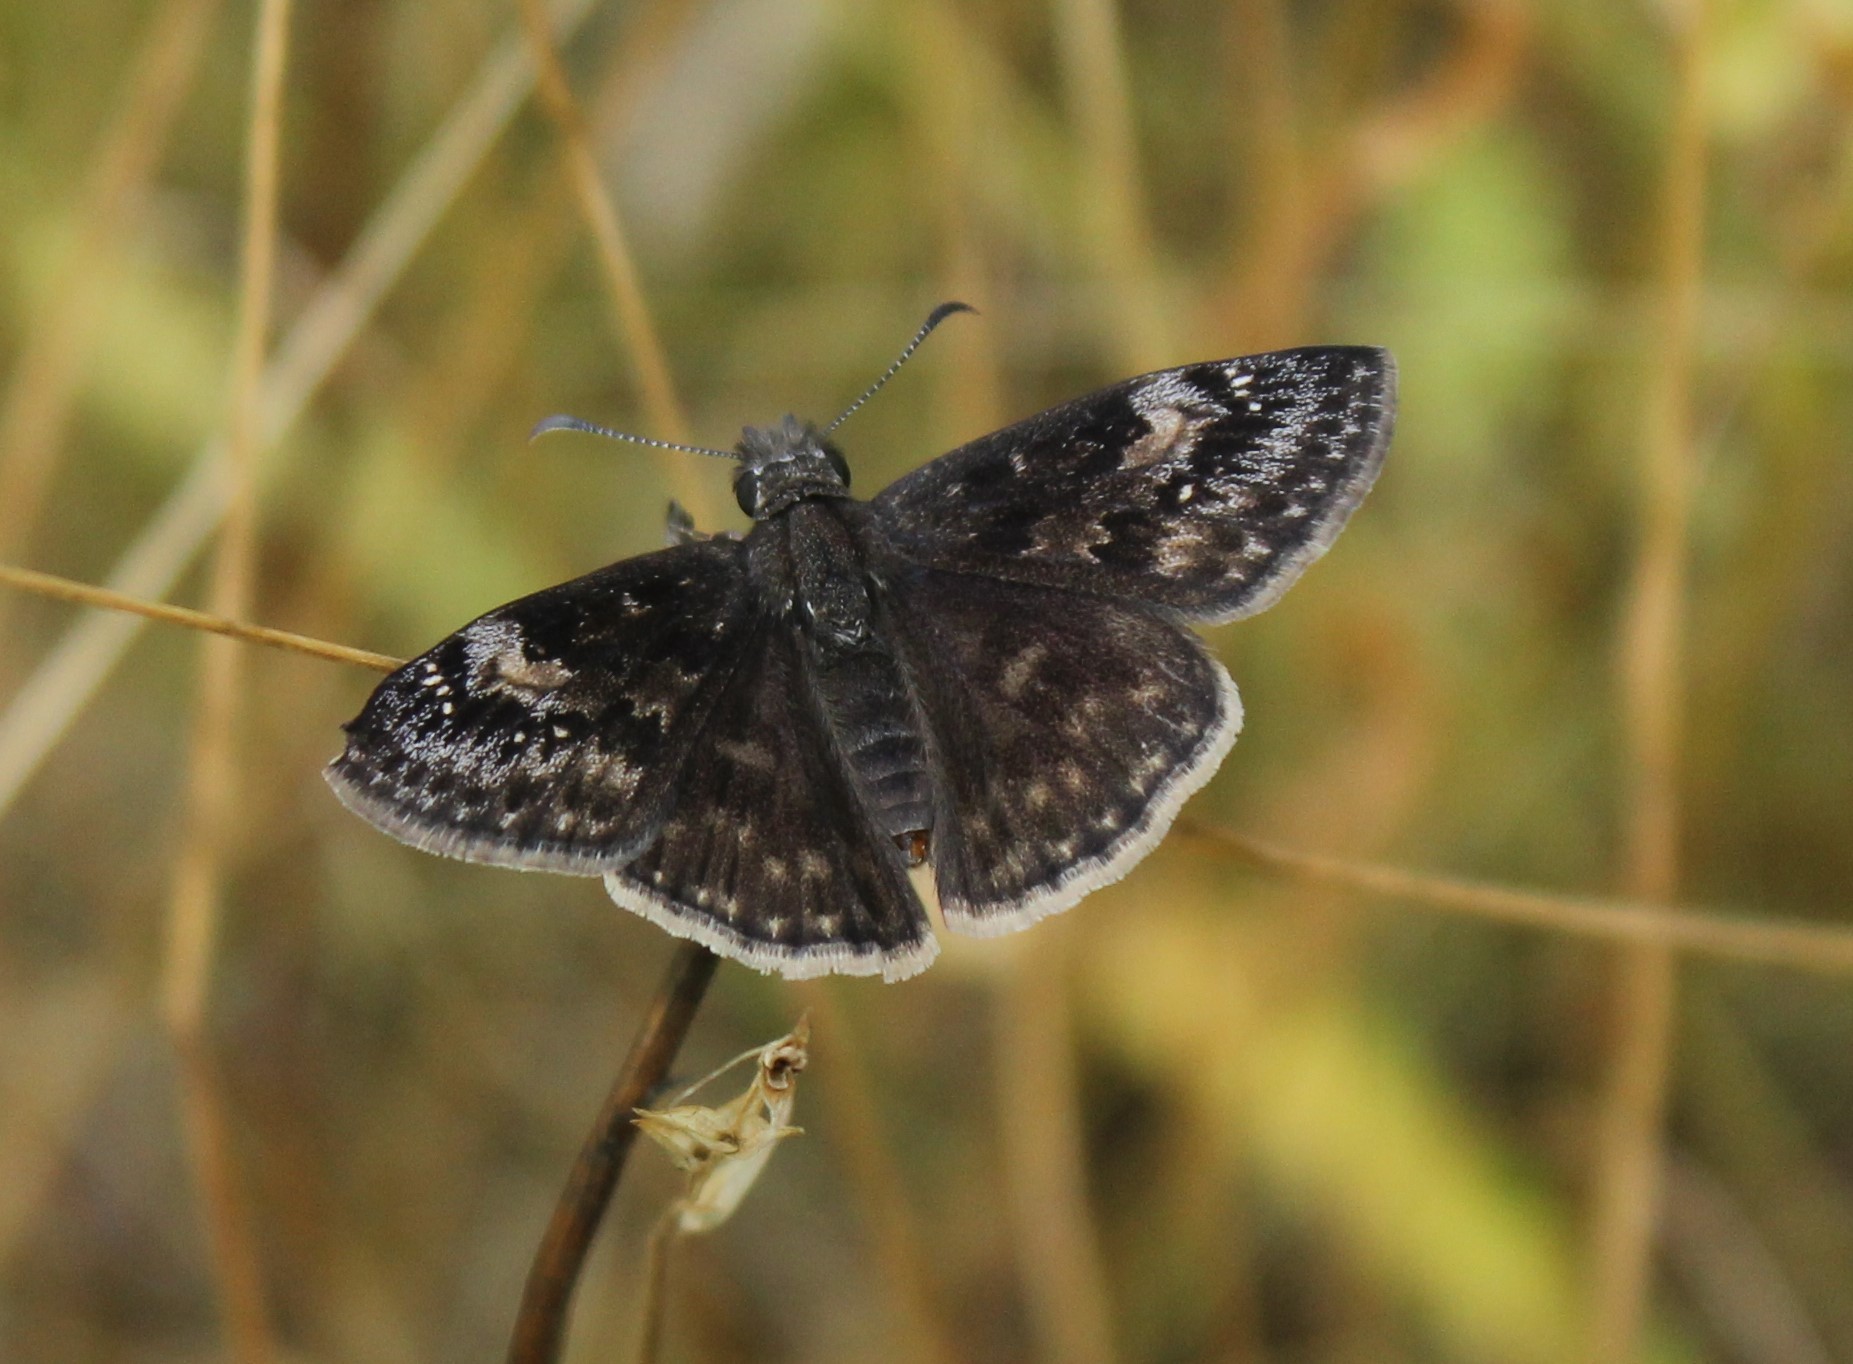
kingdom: Animalia
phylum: Arthropoda
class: Insecta
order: Lepidoptera
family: Hesperiidae
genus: Erynnis
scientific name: Erynnis baptisiae
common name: Wild indigo duskywing
